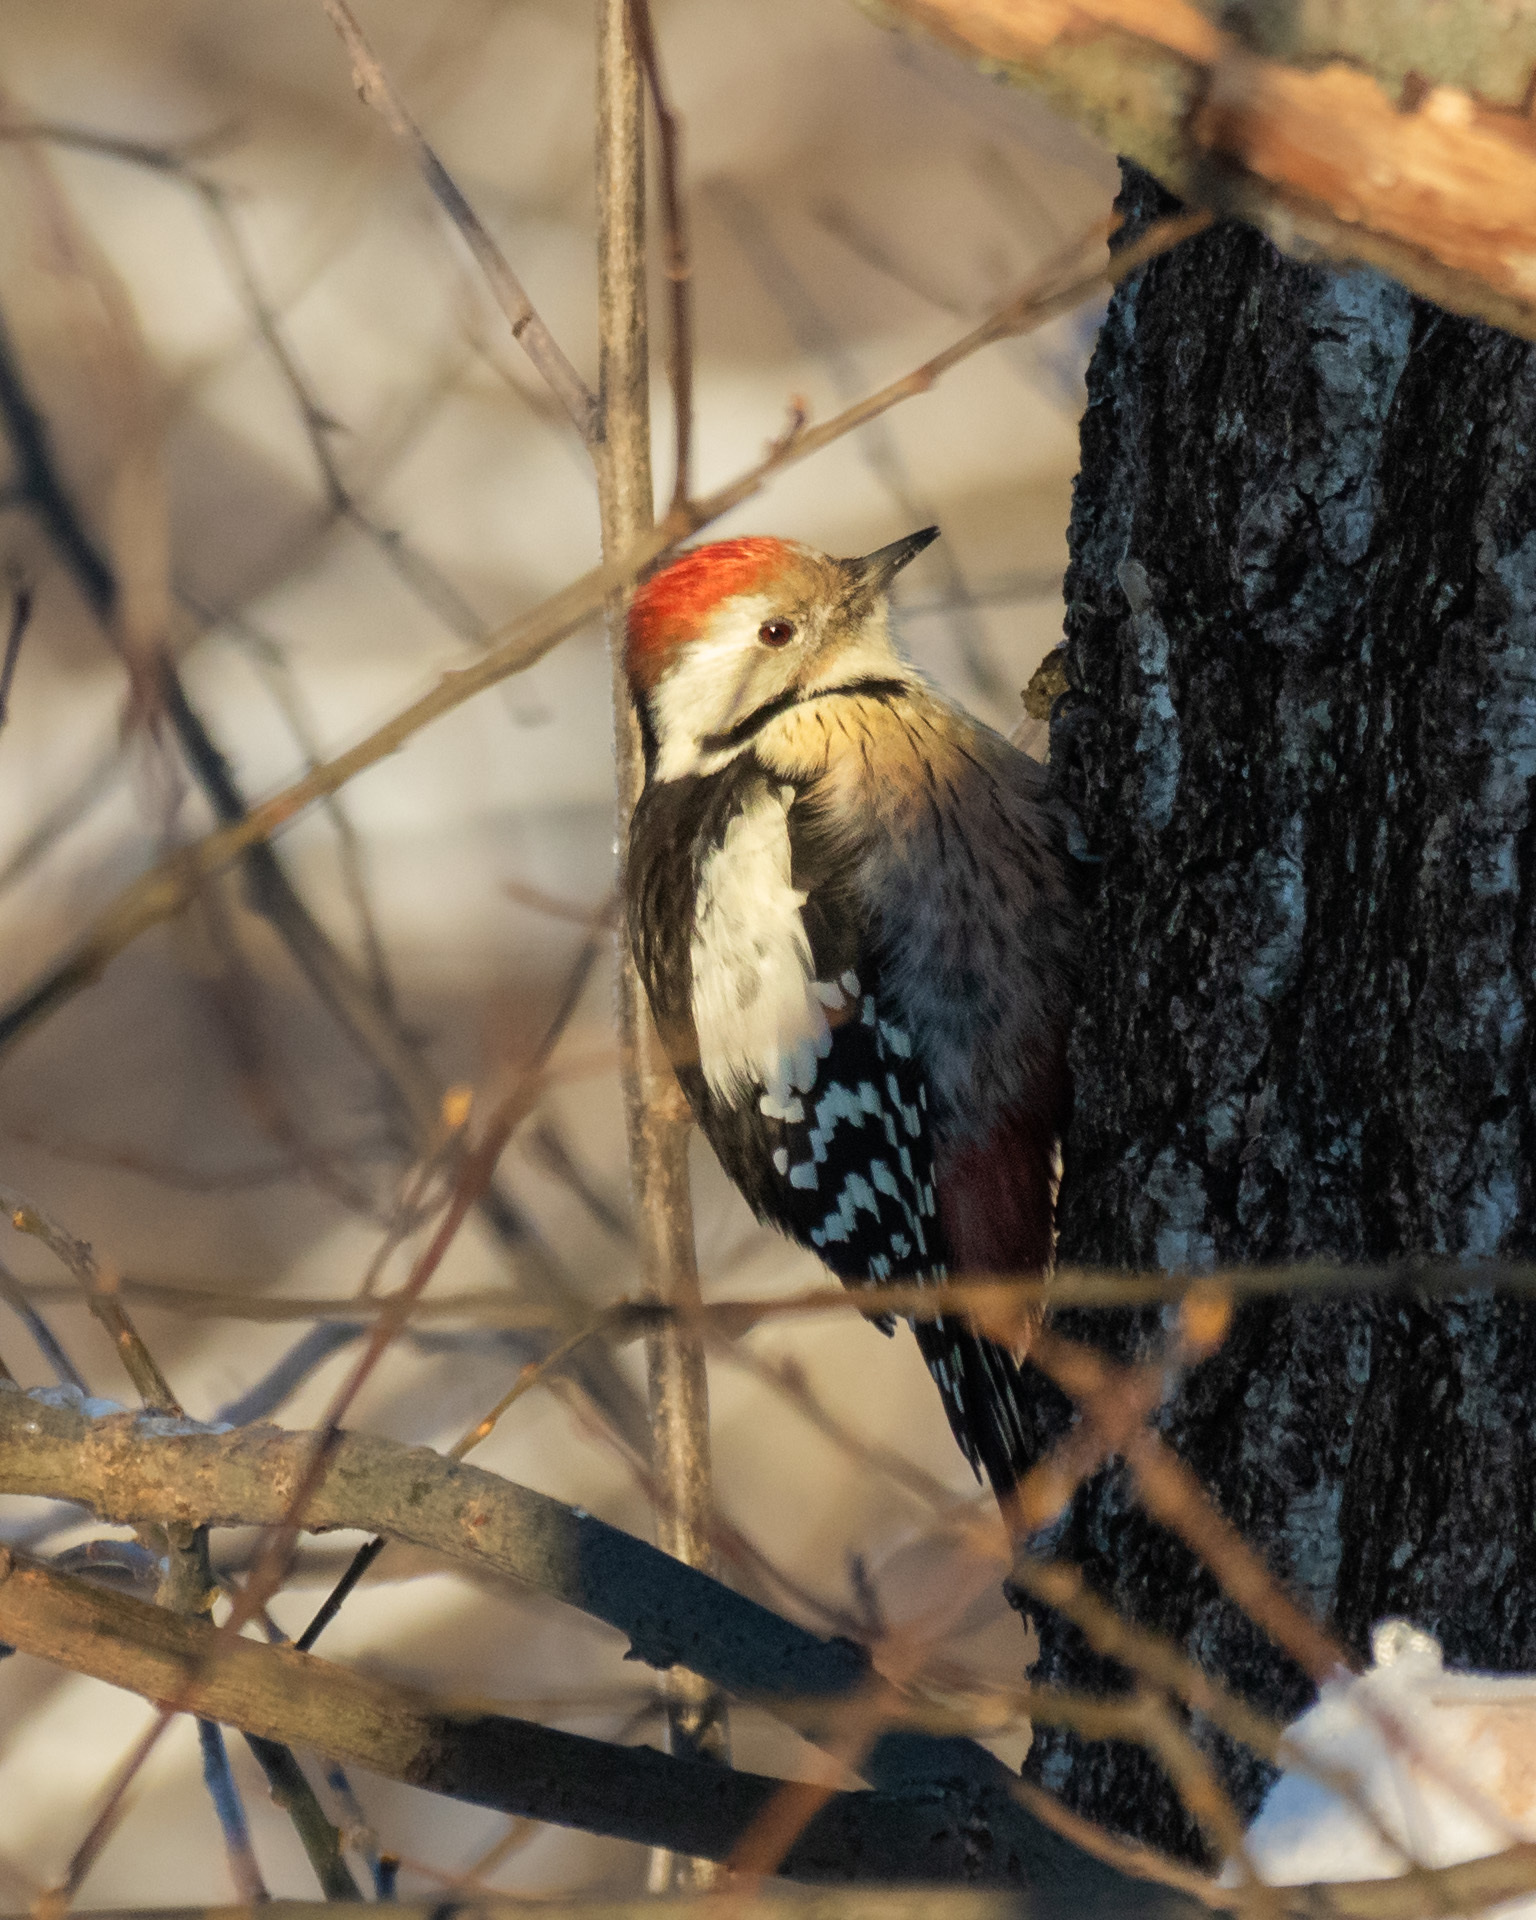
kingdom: Animalia
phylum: Chordata
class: Aves
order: Piciformes
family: Picidae
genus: Dendrocoptes
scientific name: Dendrocoptes medius
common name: Middle spotted woodpecker
